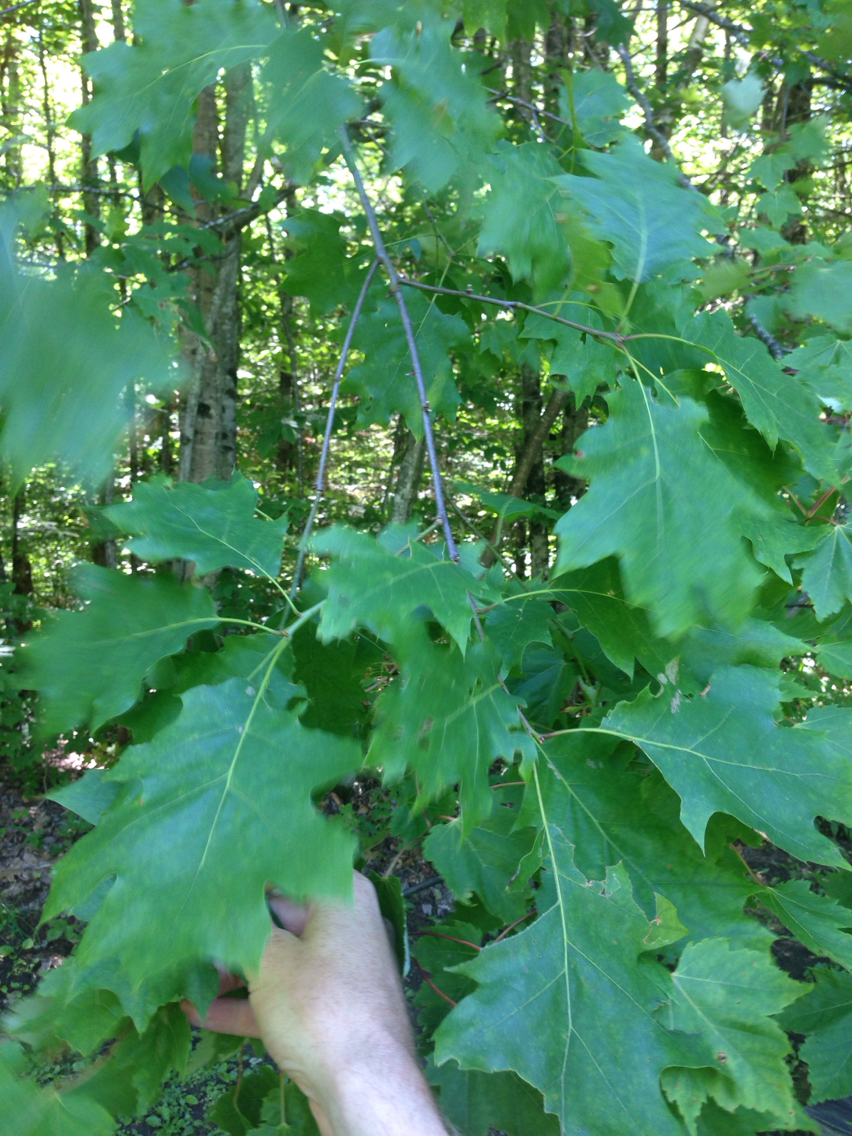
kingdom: Plantae
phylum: Tracheophyta
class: Magnoliopsida
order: Fagales
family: Fagaceae
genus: Quercus
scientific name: Quercus rubra
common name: Red oak
